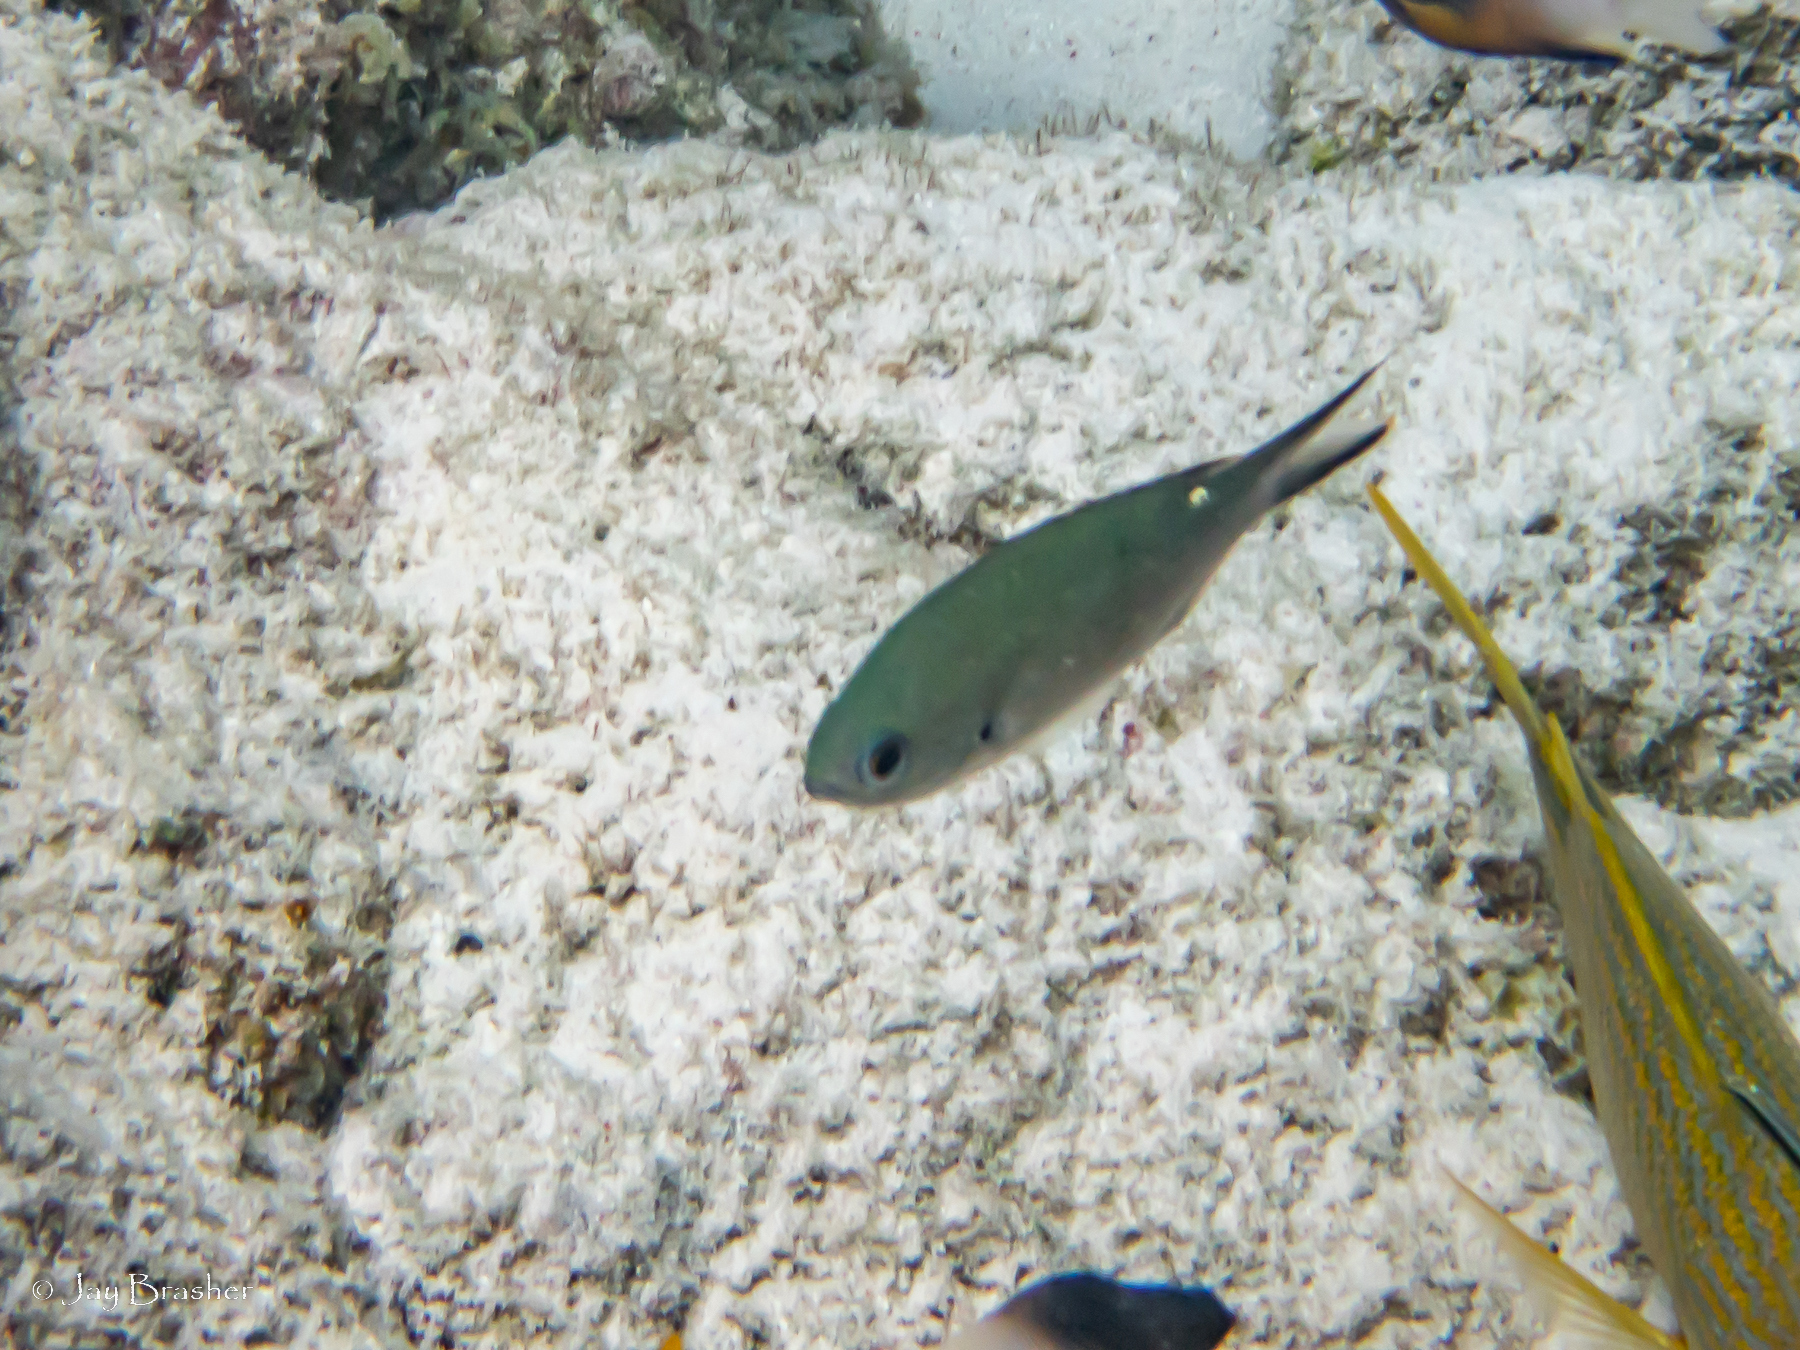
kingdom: Animalia
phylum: Chordata
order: Perciformes
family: Pomacentridae
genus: Chromis
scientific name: Chromis multilineata
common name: Brown chromis
